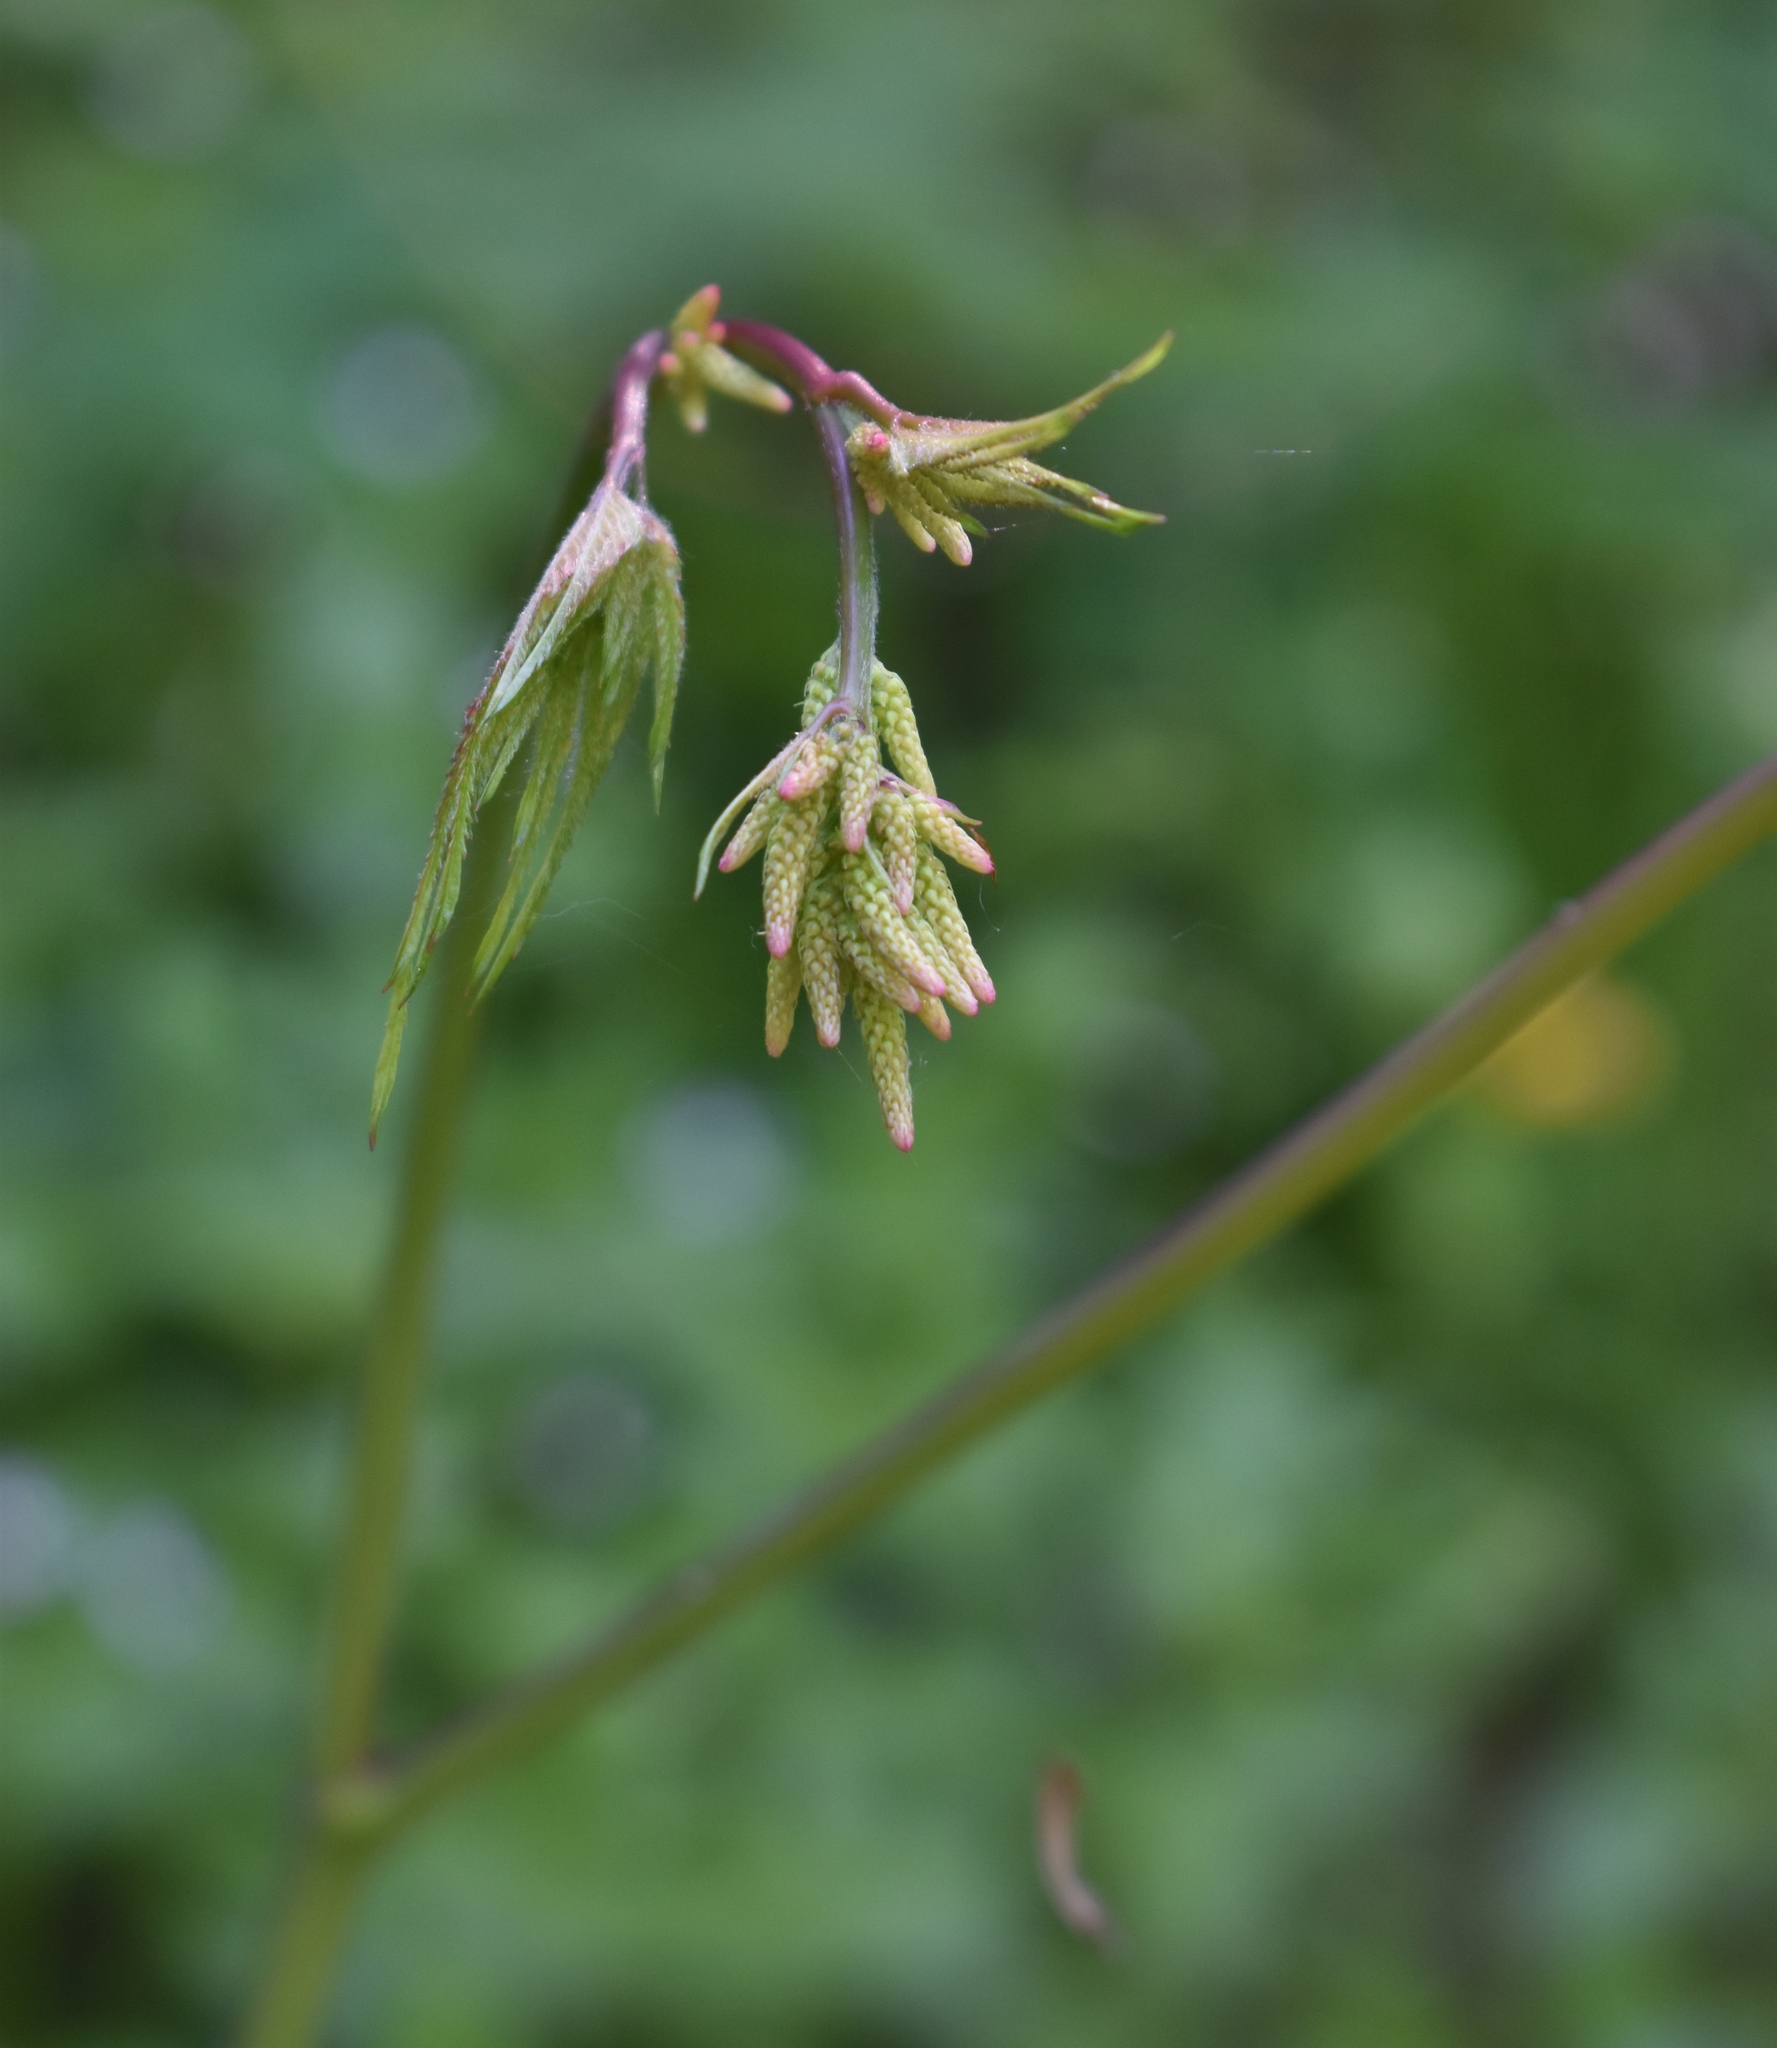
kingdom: Plantae
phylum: Tracheophyta
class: Magnoliopsida
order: Rosales
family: Rosaceae
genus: Aruncus
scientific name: Aruncus dioicus
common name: Buck's-beard
